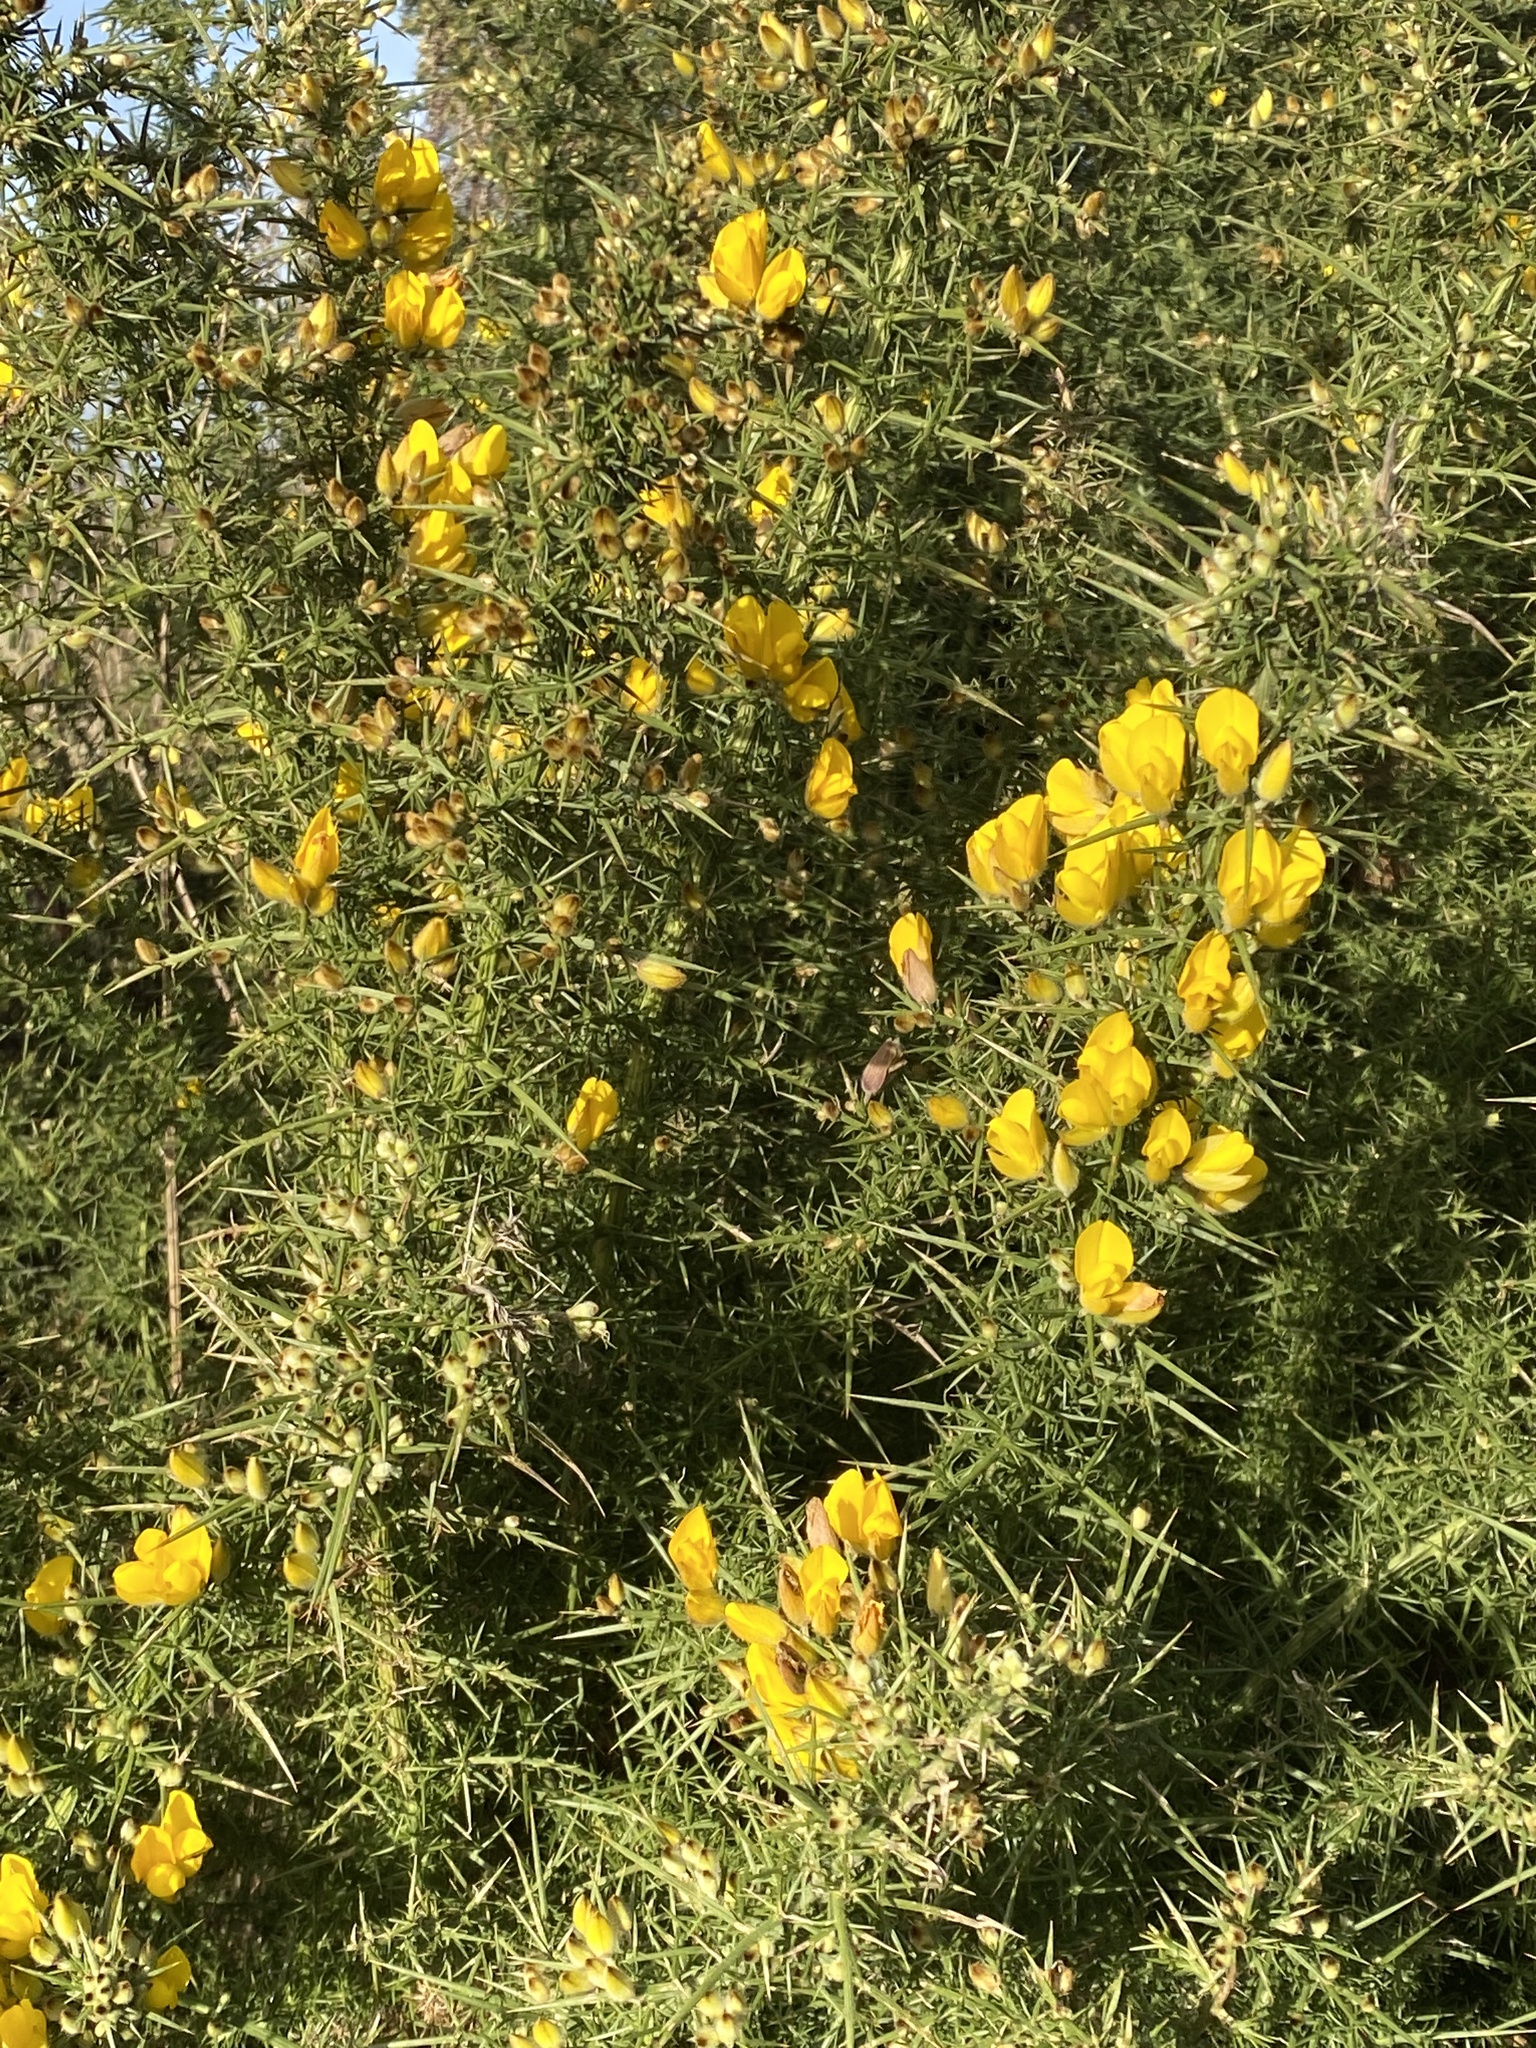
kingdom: Plantae
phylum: Tracheophyta
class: Magnoliopsida
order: Fabales
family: Fabaceae
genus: Ulex
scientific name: Ulex europaeus
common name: Common gorse
